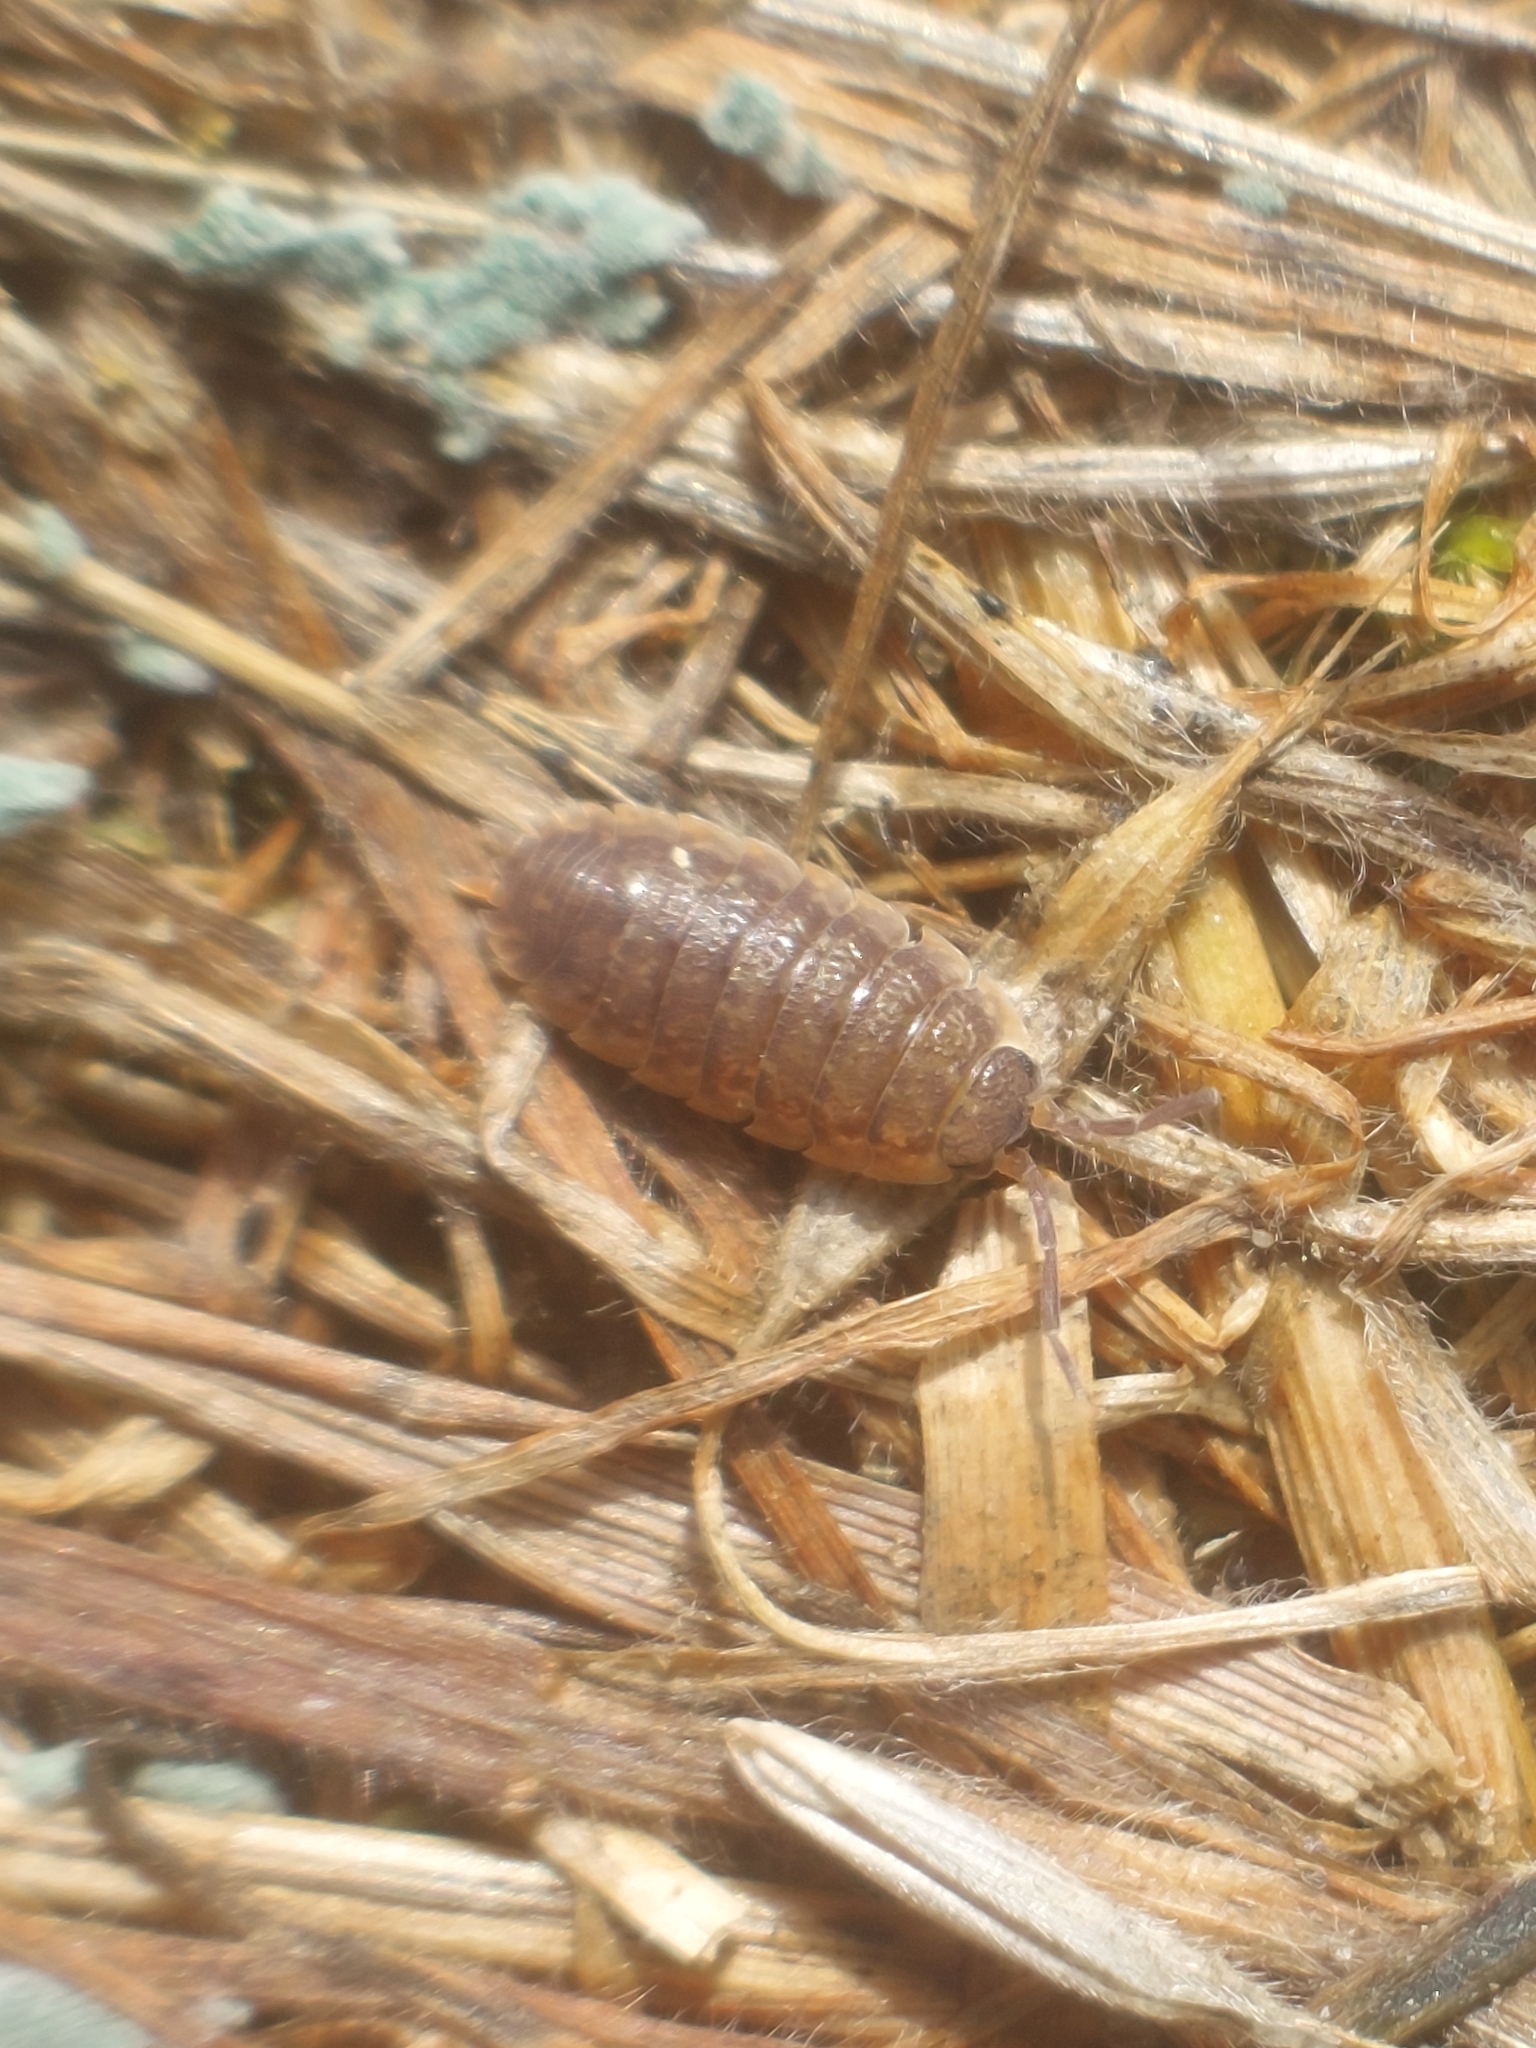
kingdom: Animalia
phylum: Arthropoda
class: Malacostraca
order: Isopoda
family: Porcellionidae
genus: Porcellio
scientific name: Porcellio scaber
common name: Common rough woodlouse
